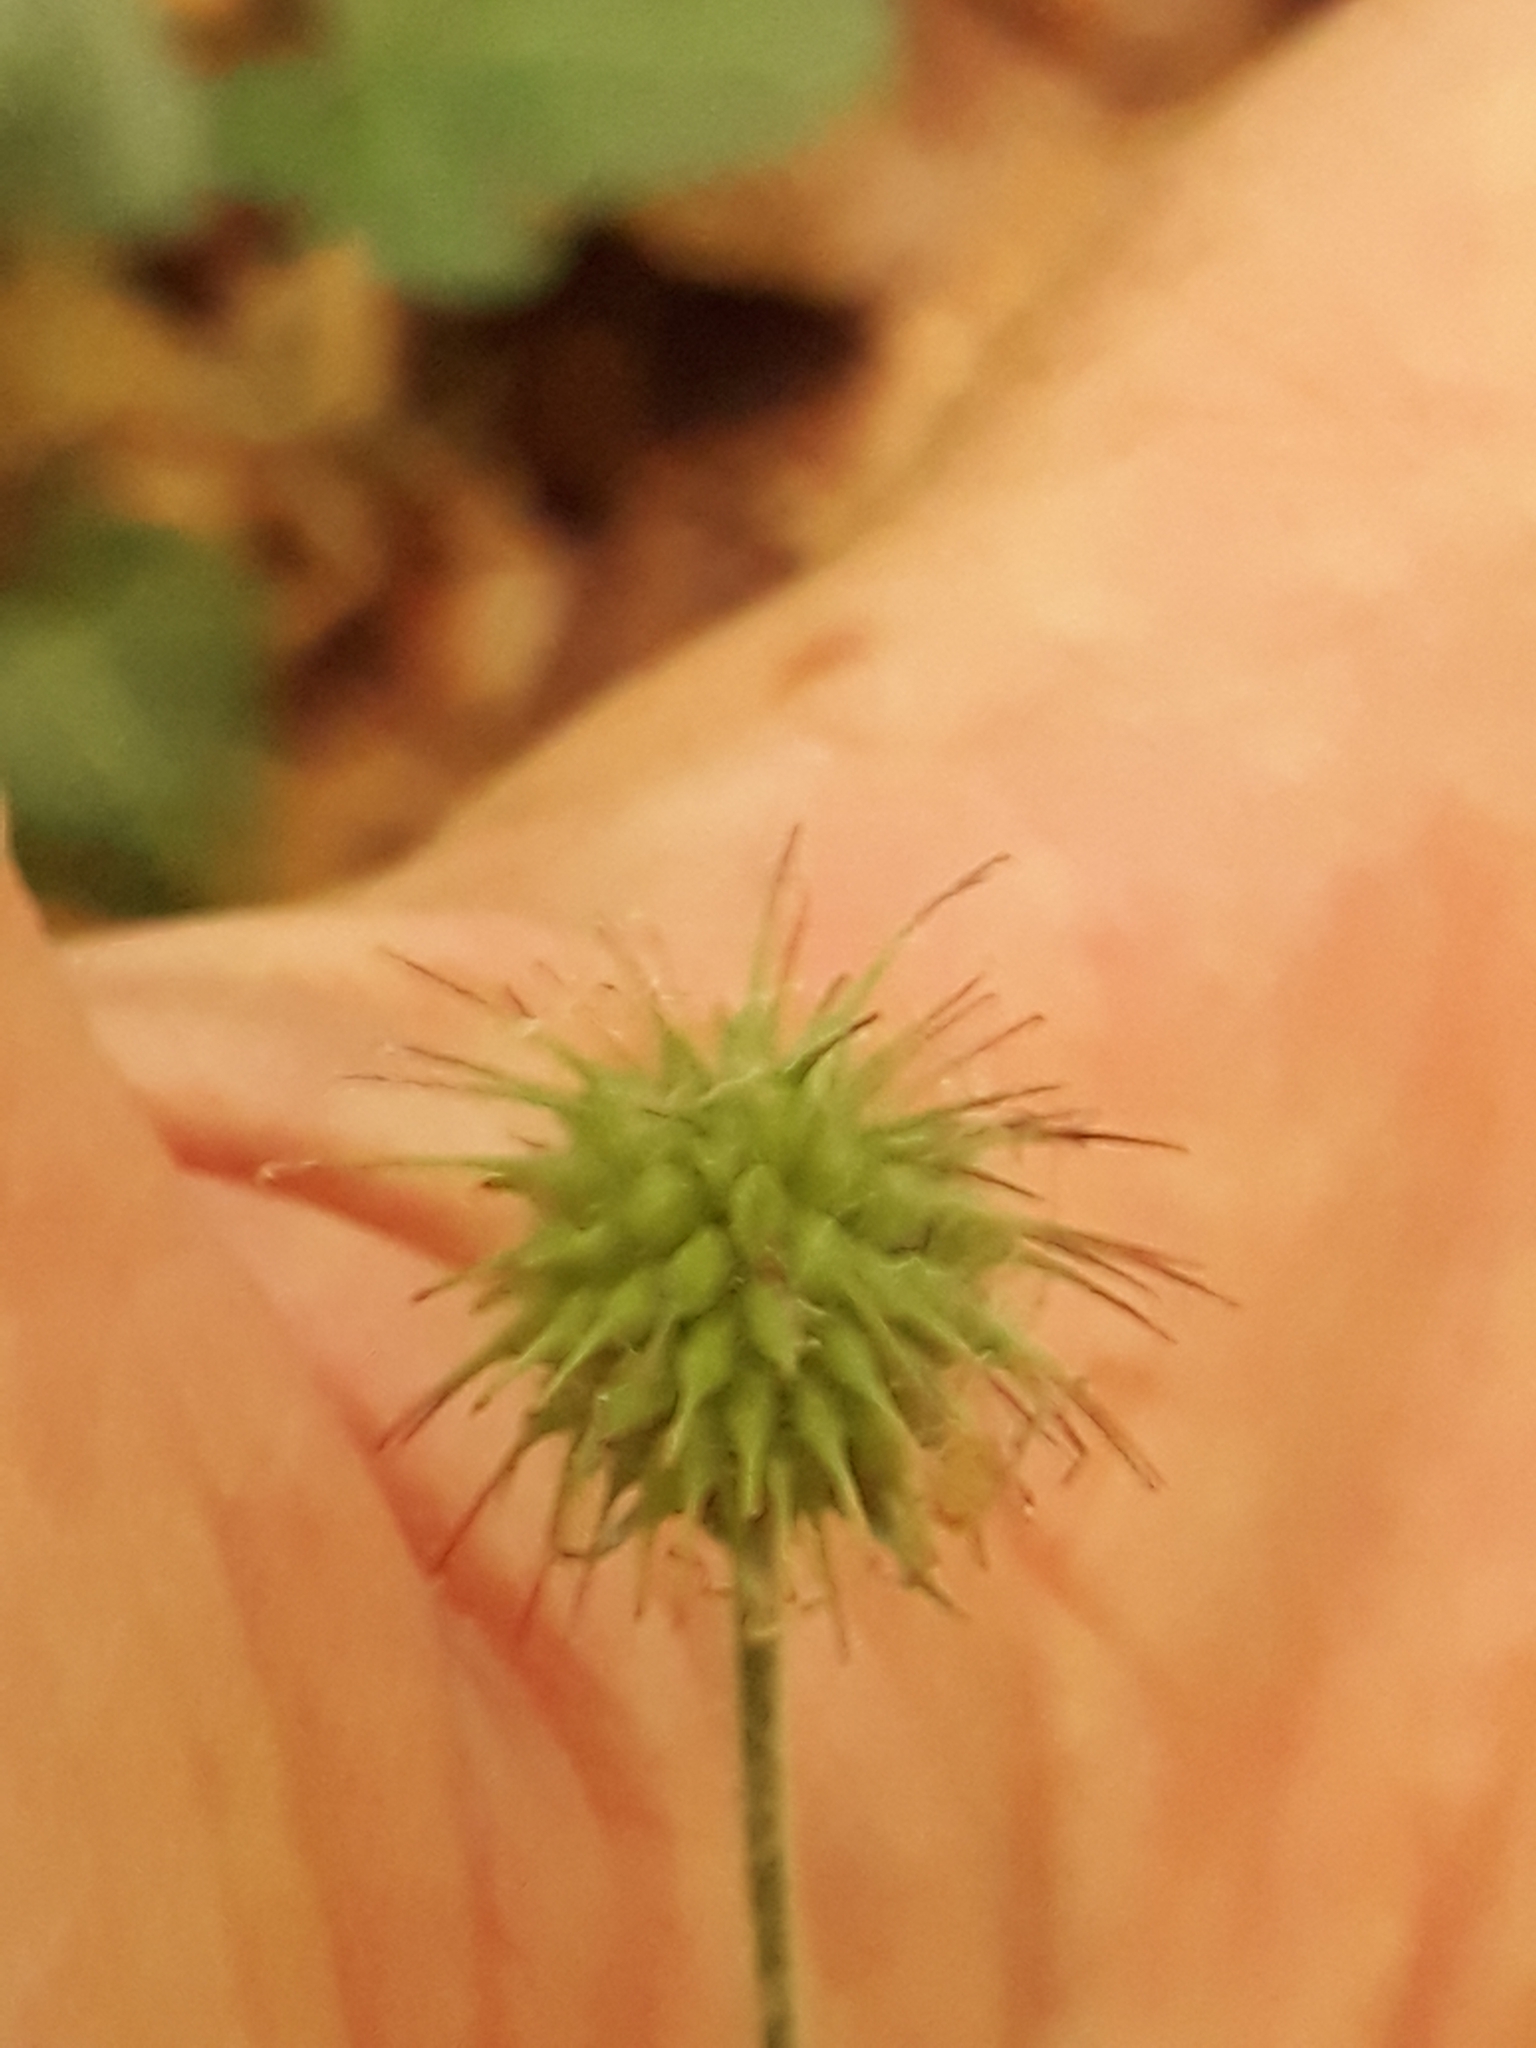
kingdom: Plantae
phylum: Tracheophyta
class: Magnoliopsida
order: Rosales
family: Rosaceae
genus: Geum
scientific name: Geum urbanum
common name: Wood avens
